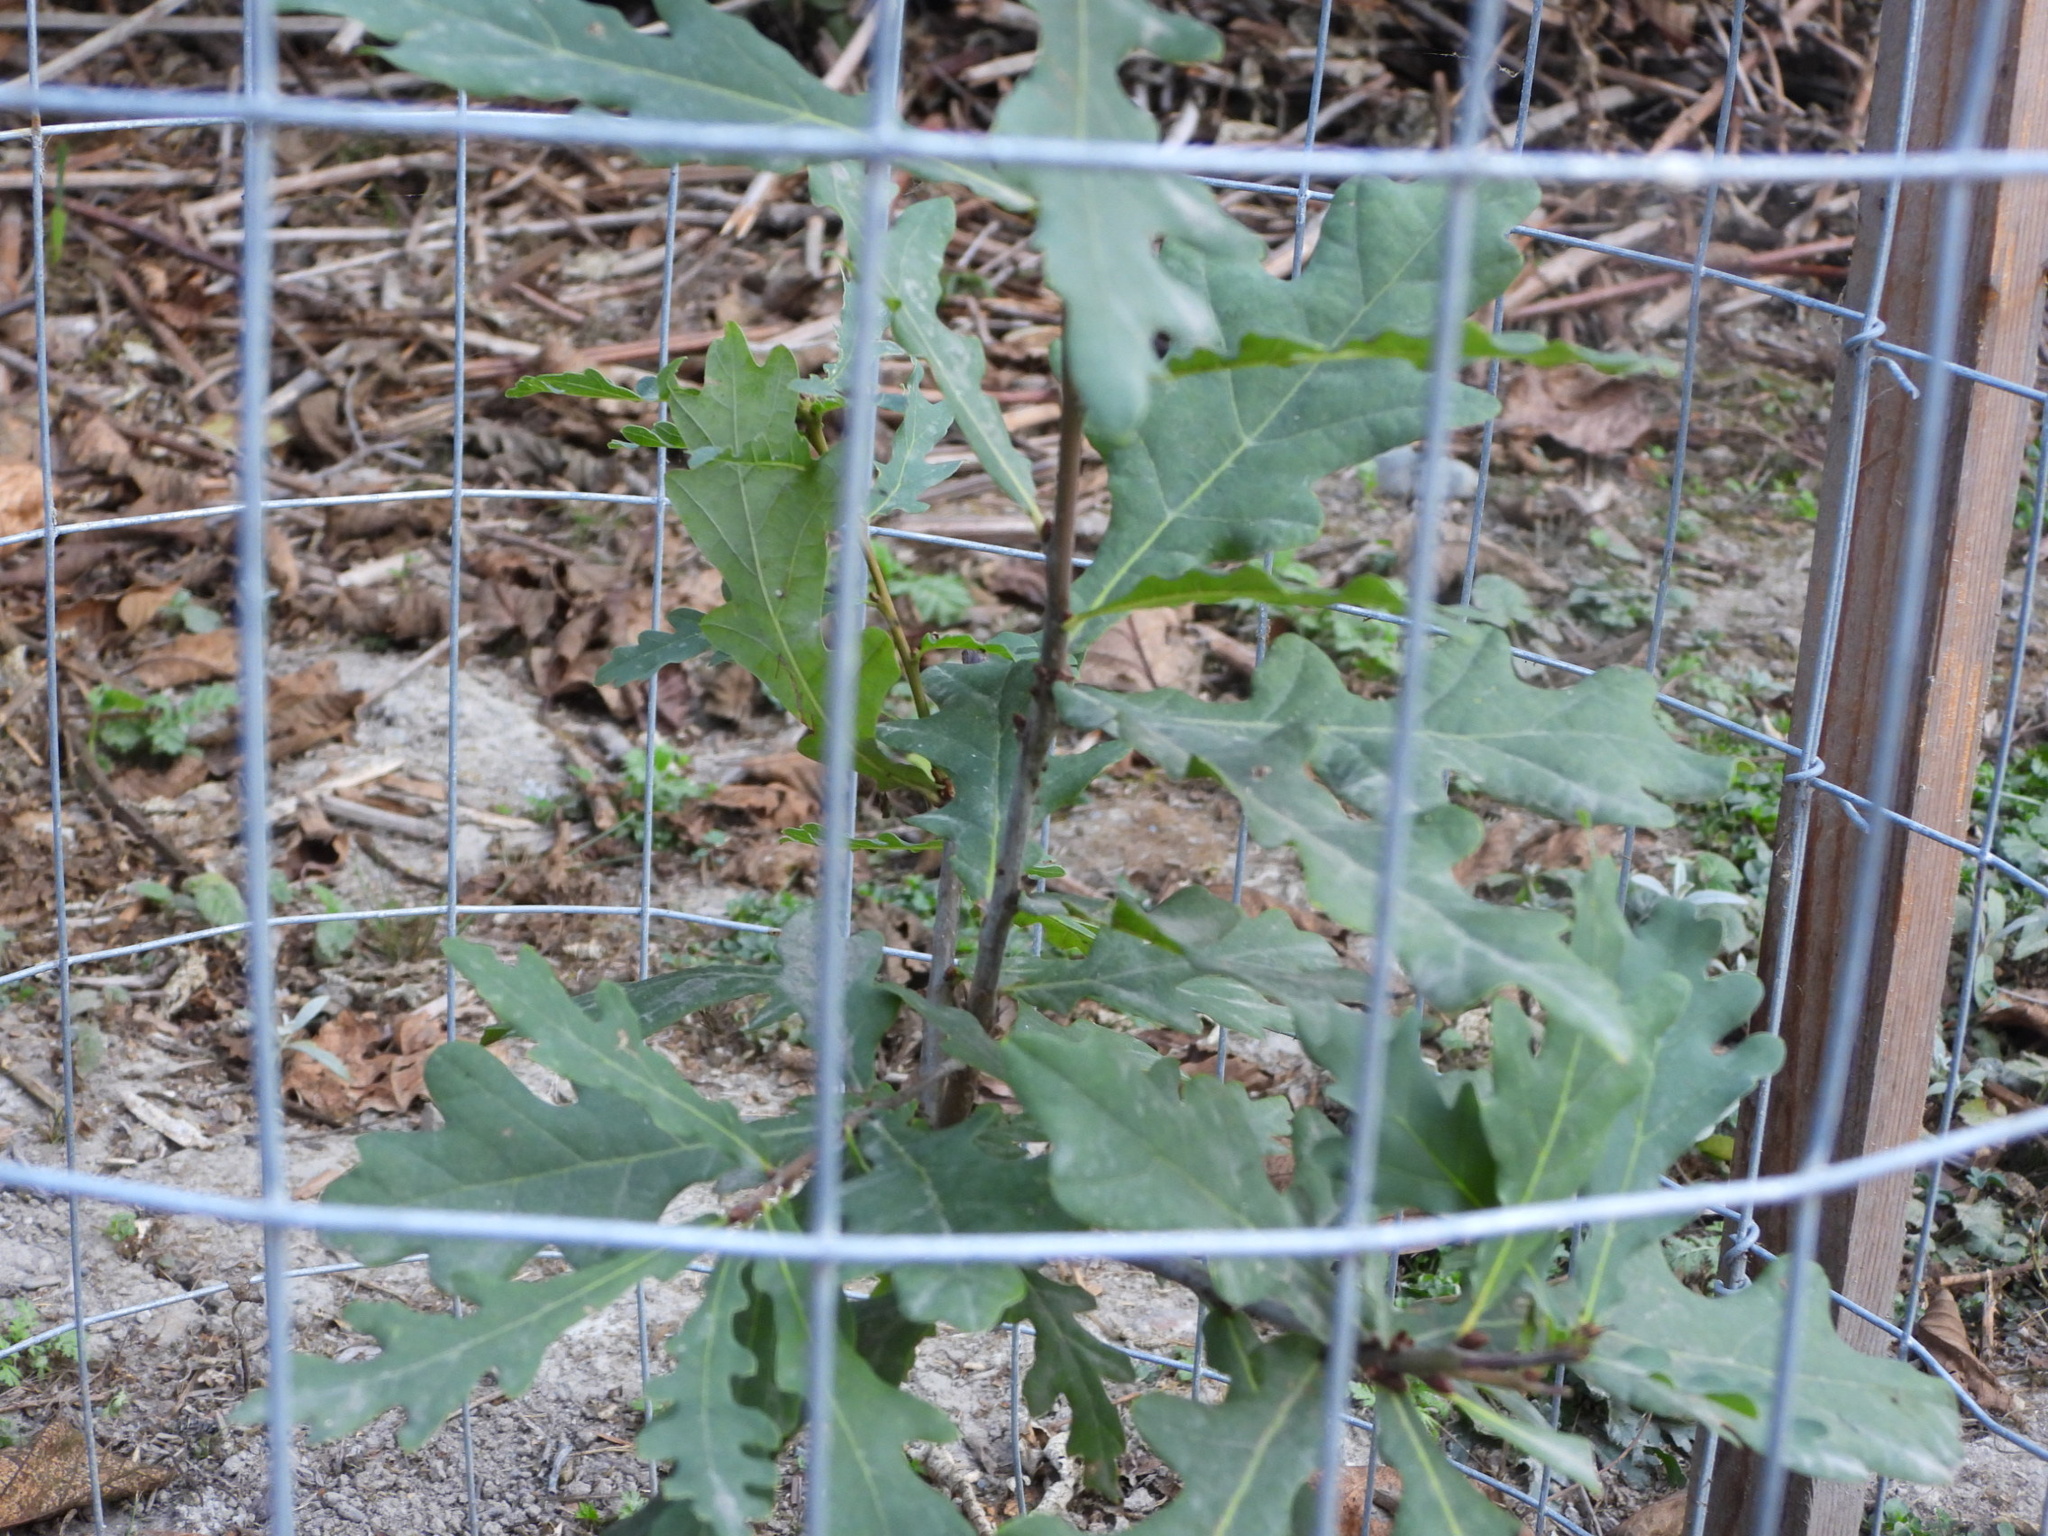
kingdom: Plantae
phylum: Tracheophyta
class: Magnoliopsida
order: Fagales
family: Fagaceae
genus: Quercus
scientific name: Quercus robur
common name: Pedunculate oak
